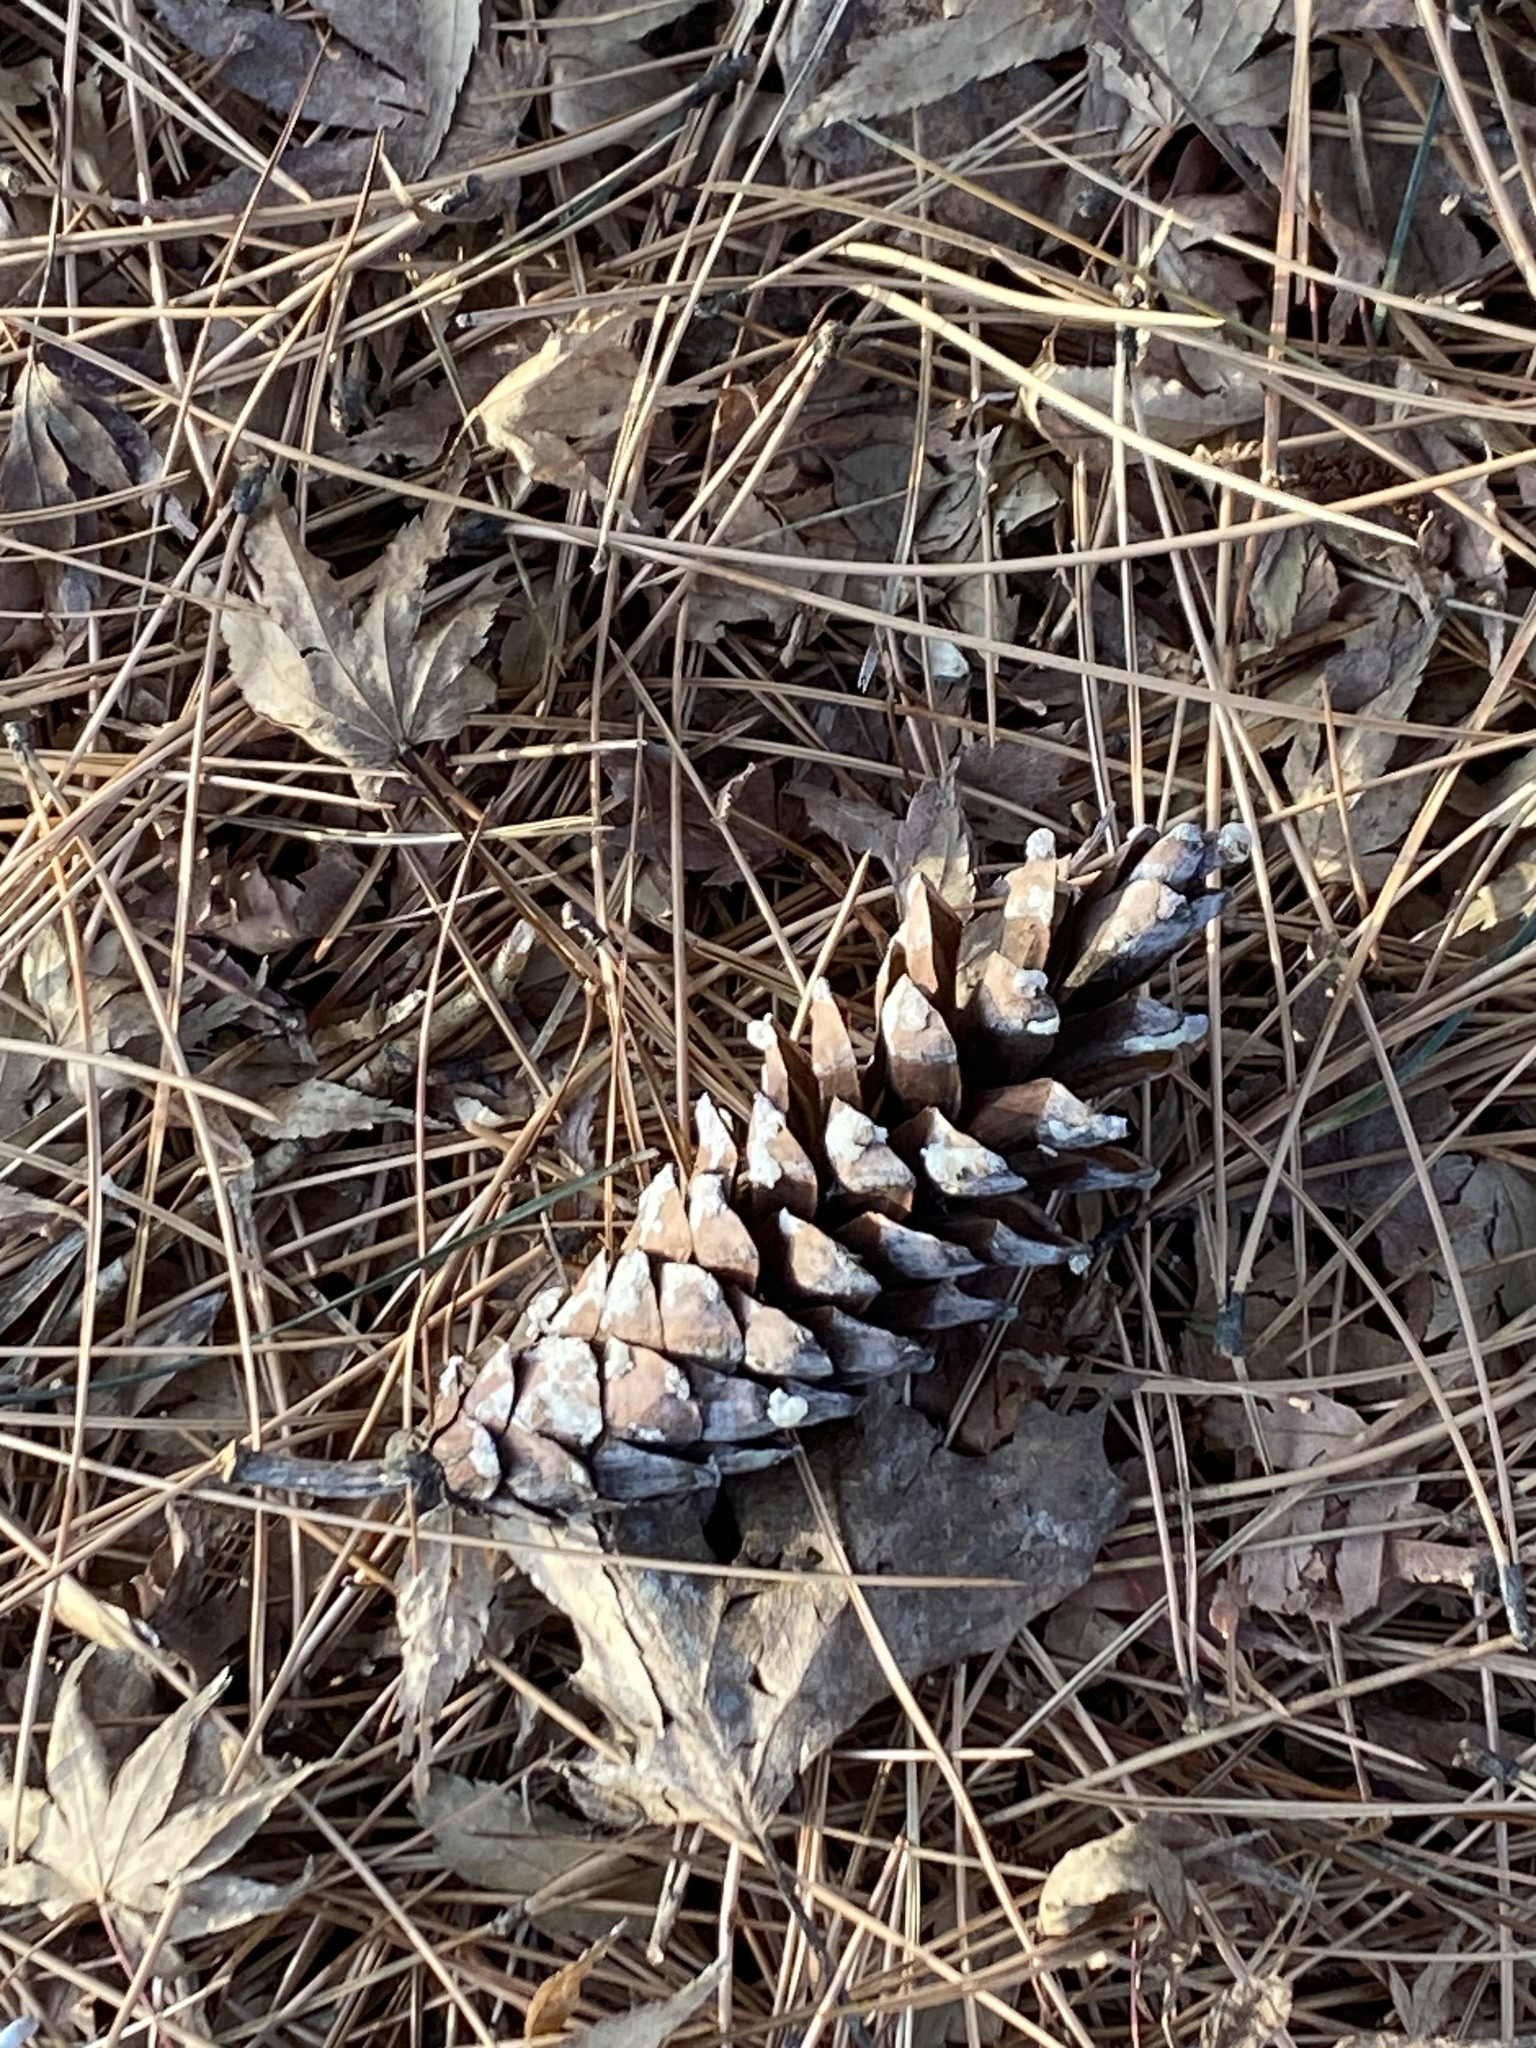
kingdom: Plantae
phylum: Tracheophyta
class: Pinopsida
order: Pinales
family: Pinaceae
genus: Pinus
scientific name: Pinus strobus
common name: Weymouth pine
